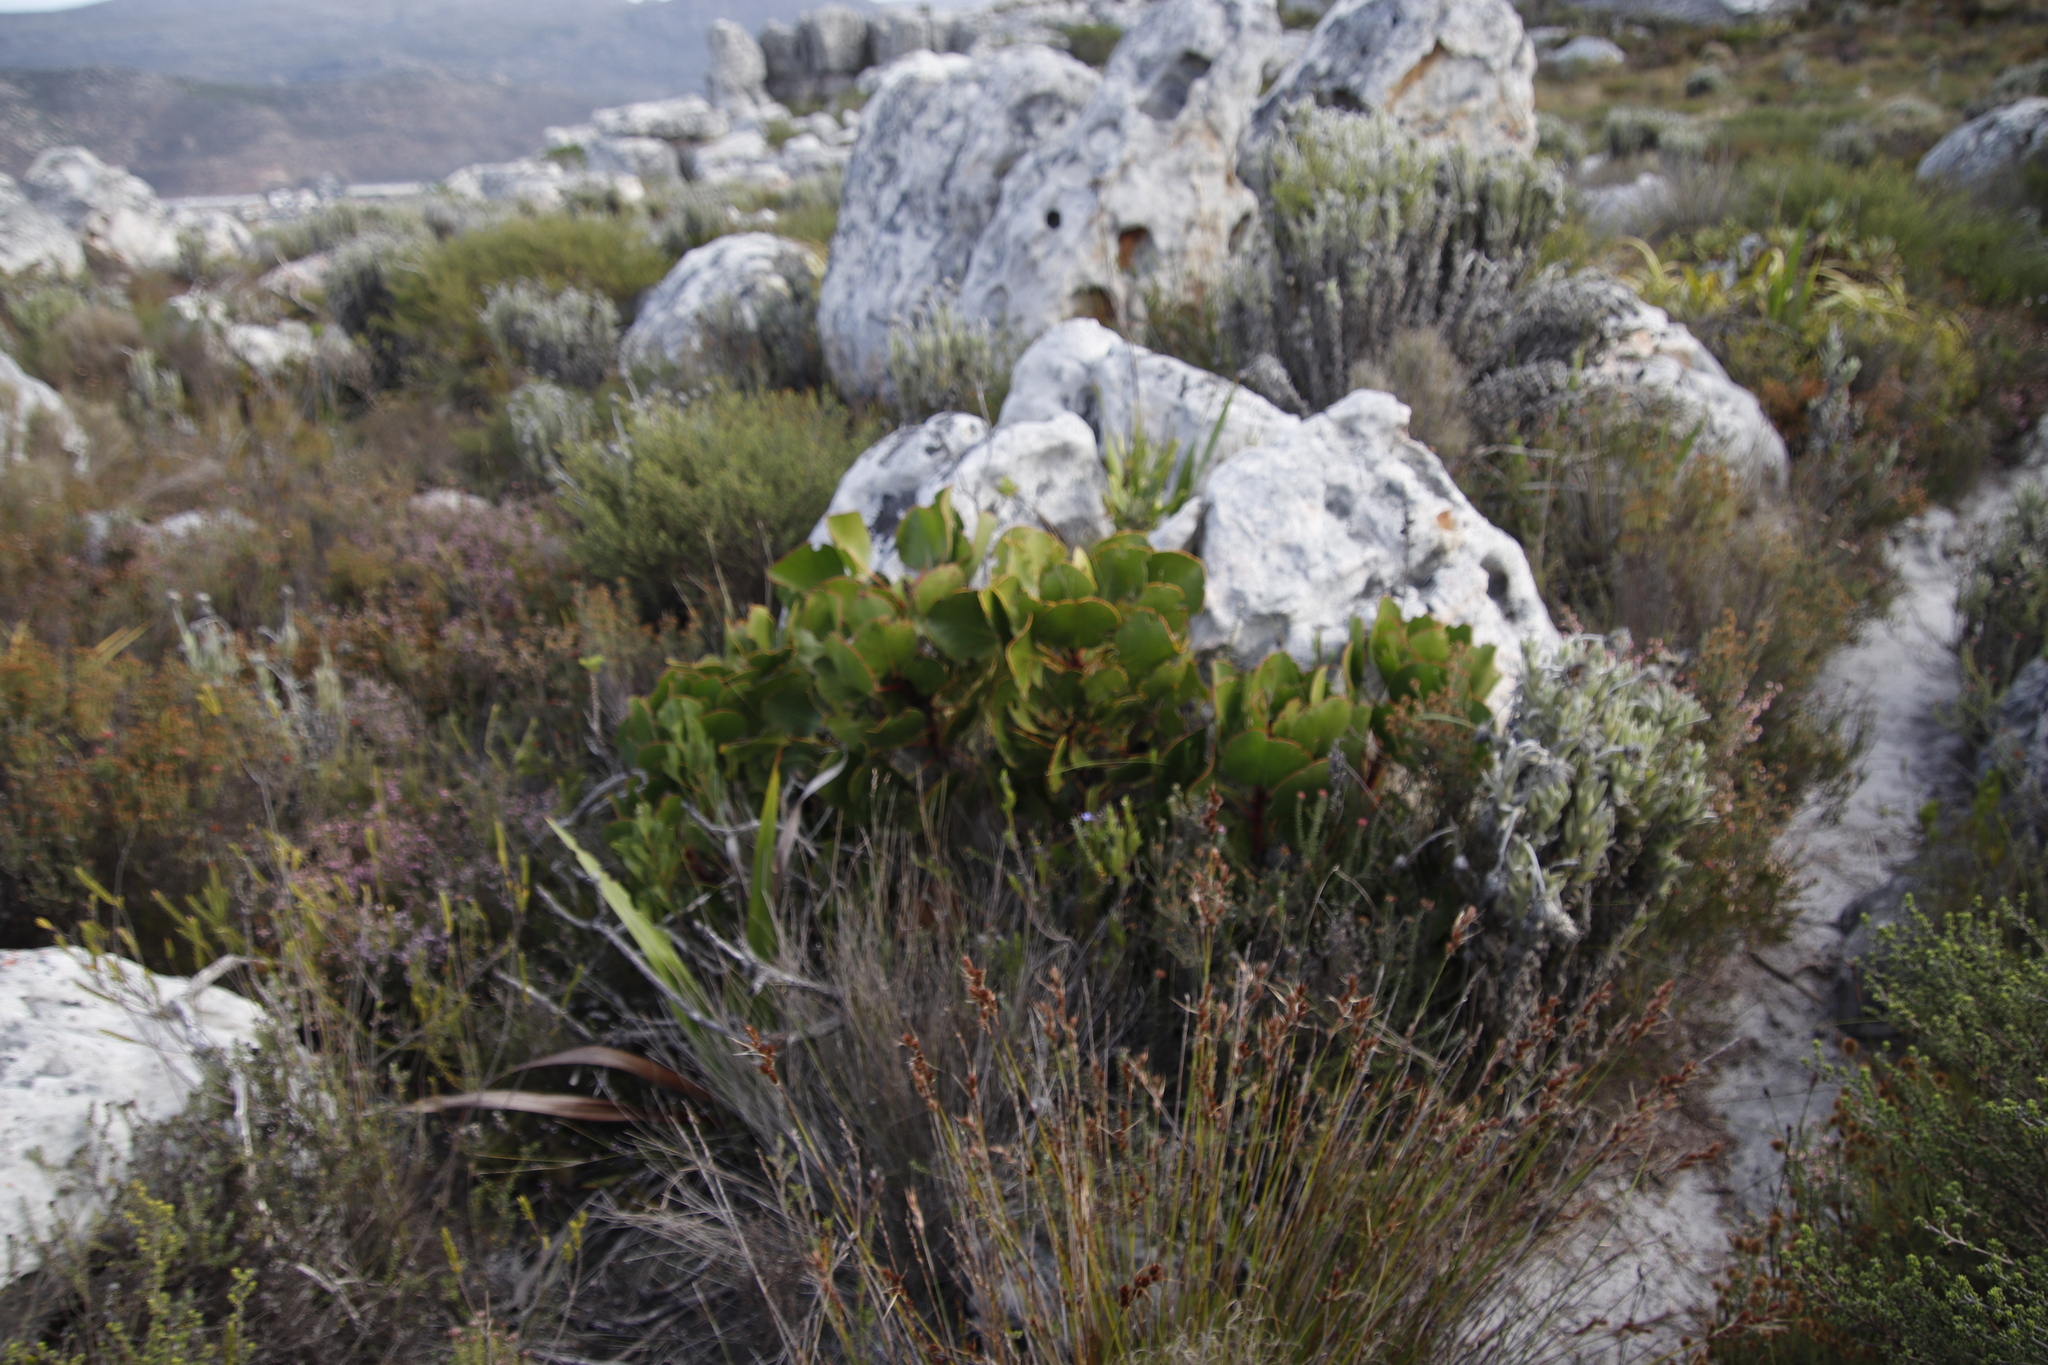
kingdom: Plantae
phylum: Tracheophyta
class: Magnoliopsida
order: Proteales
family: Proteaceae
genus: Protea
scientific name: Protea cynaroides
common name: King protea
